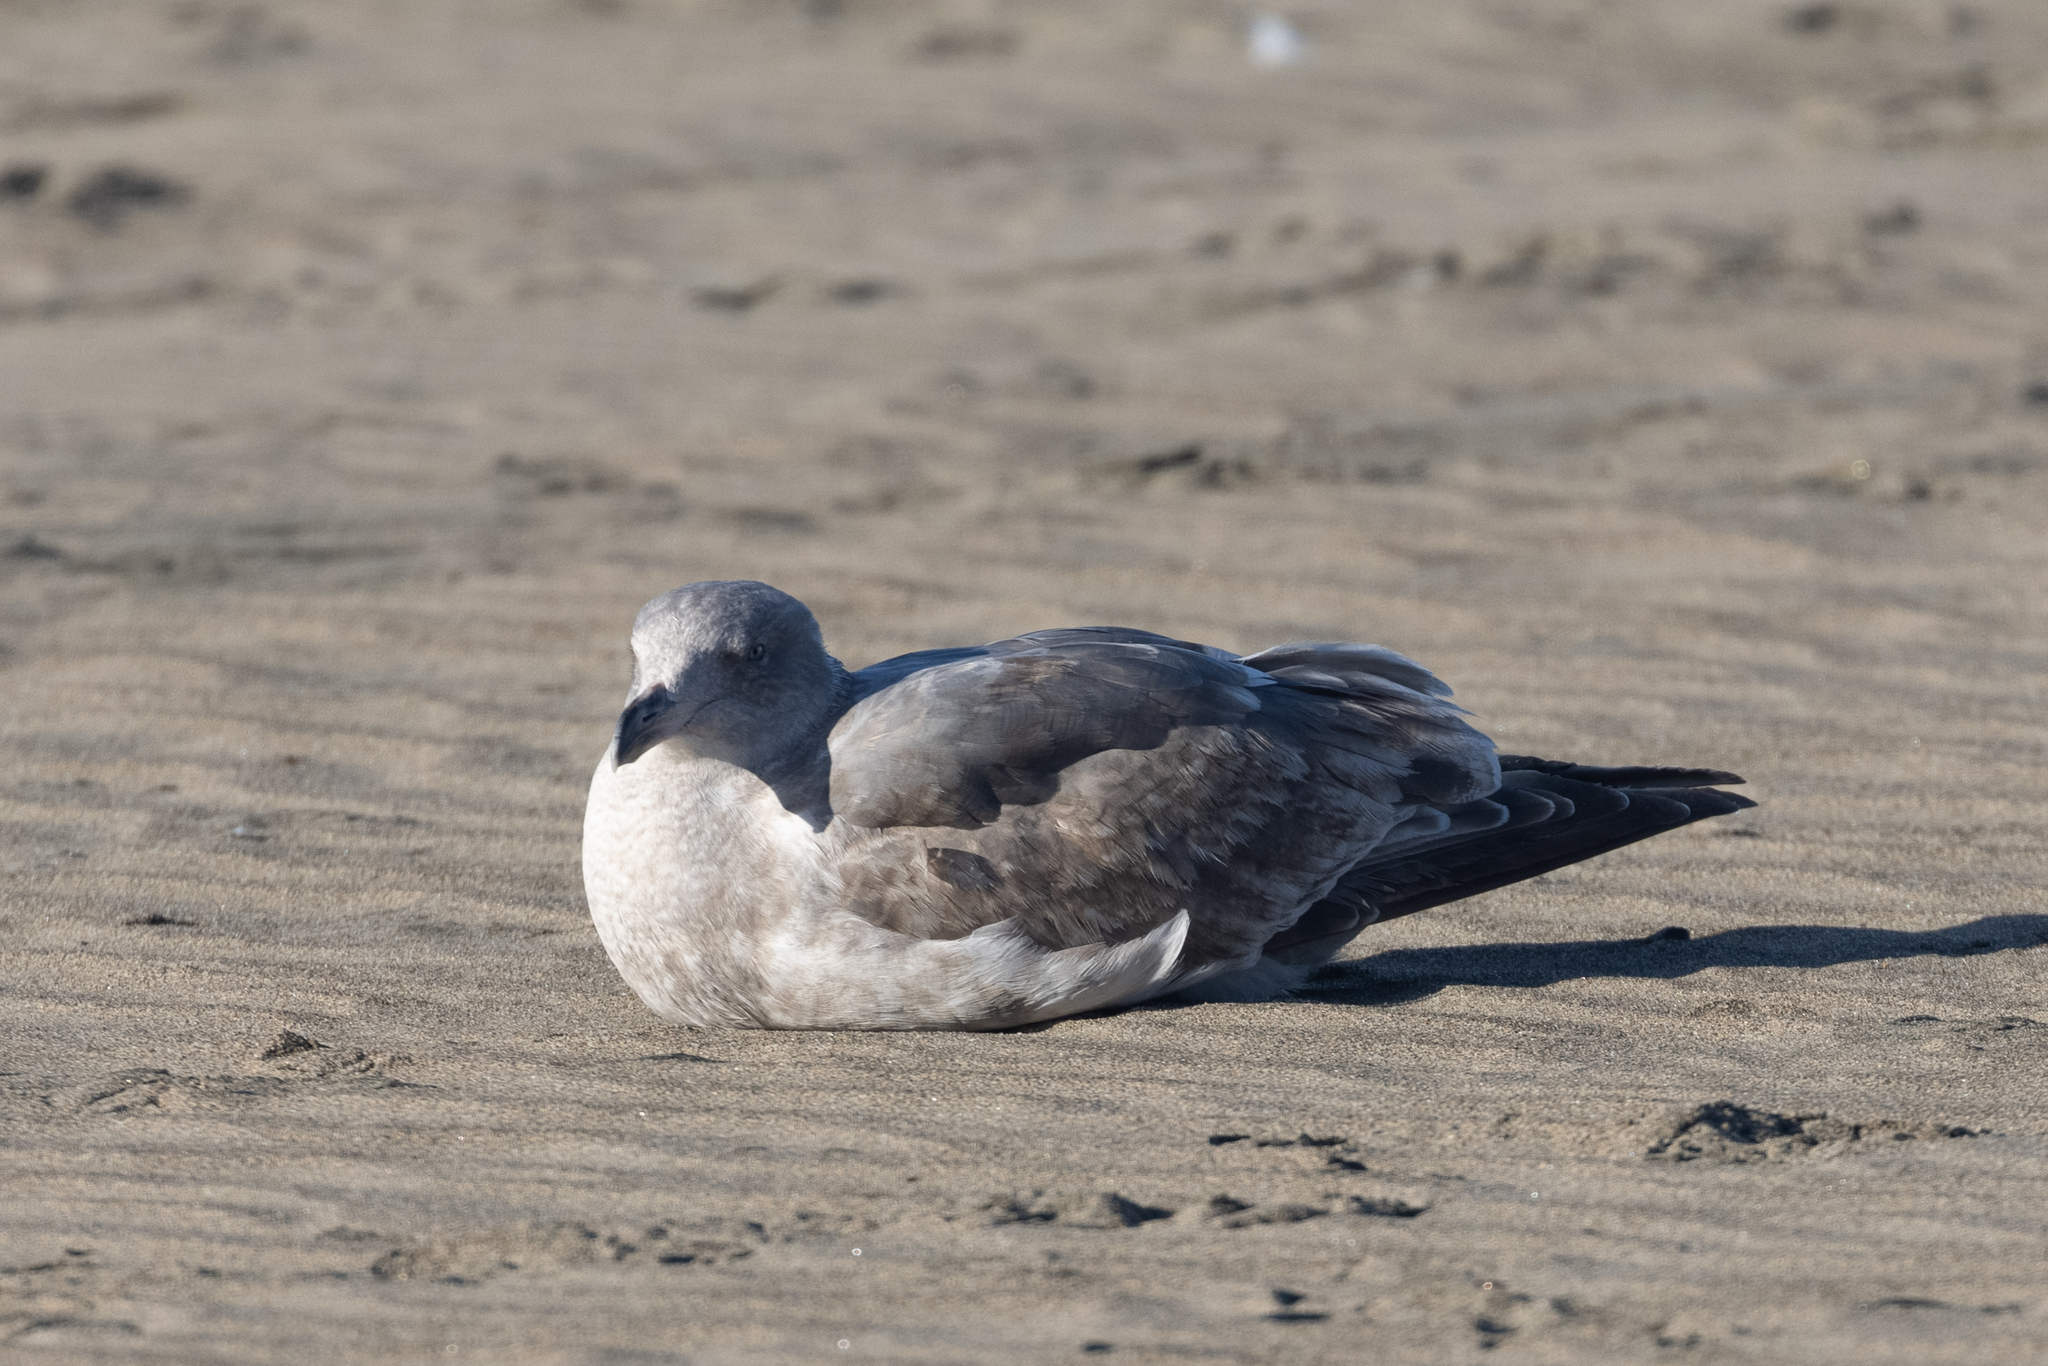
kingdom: Animalia
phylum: Chordata
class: Aves
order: Charadriiformes
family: Laridae
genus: Larus
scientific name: Larus occidentalis
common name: Western gull
